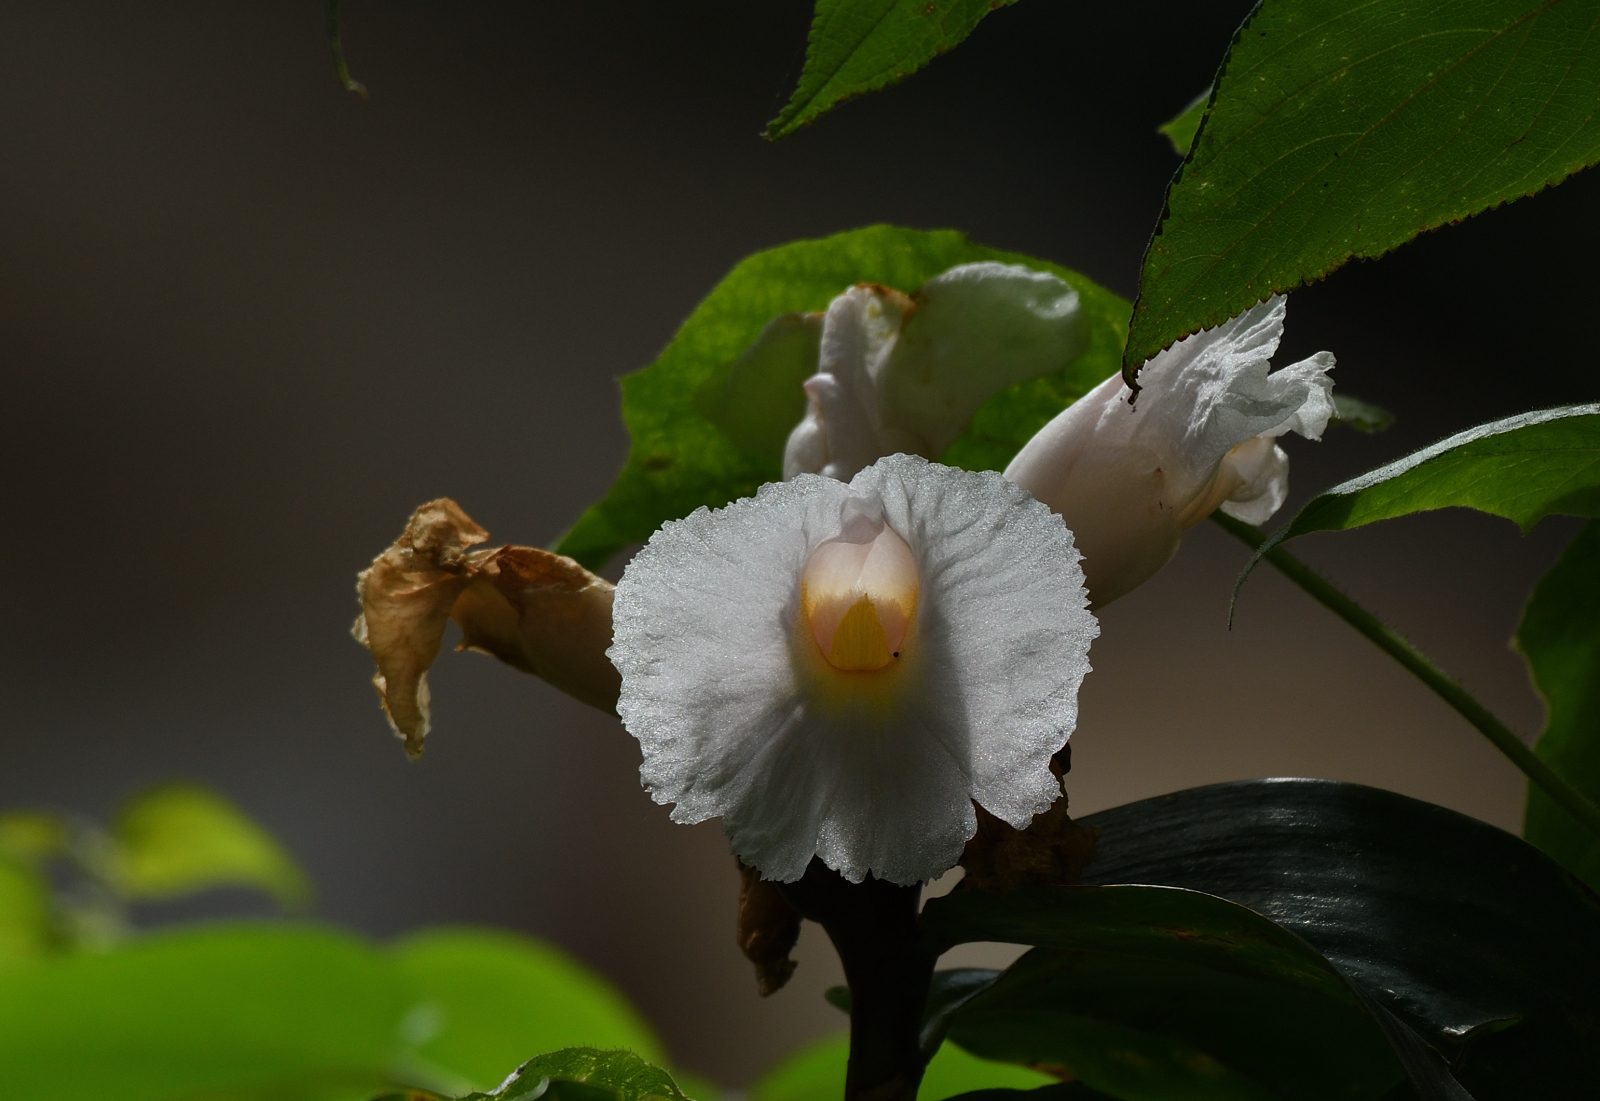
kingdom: Plantae
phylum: Tracheophyta
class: Liliopsida
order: Zingiberales
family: Costaceae
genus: Hellenia
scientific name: Hellenia speciosa
